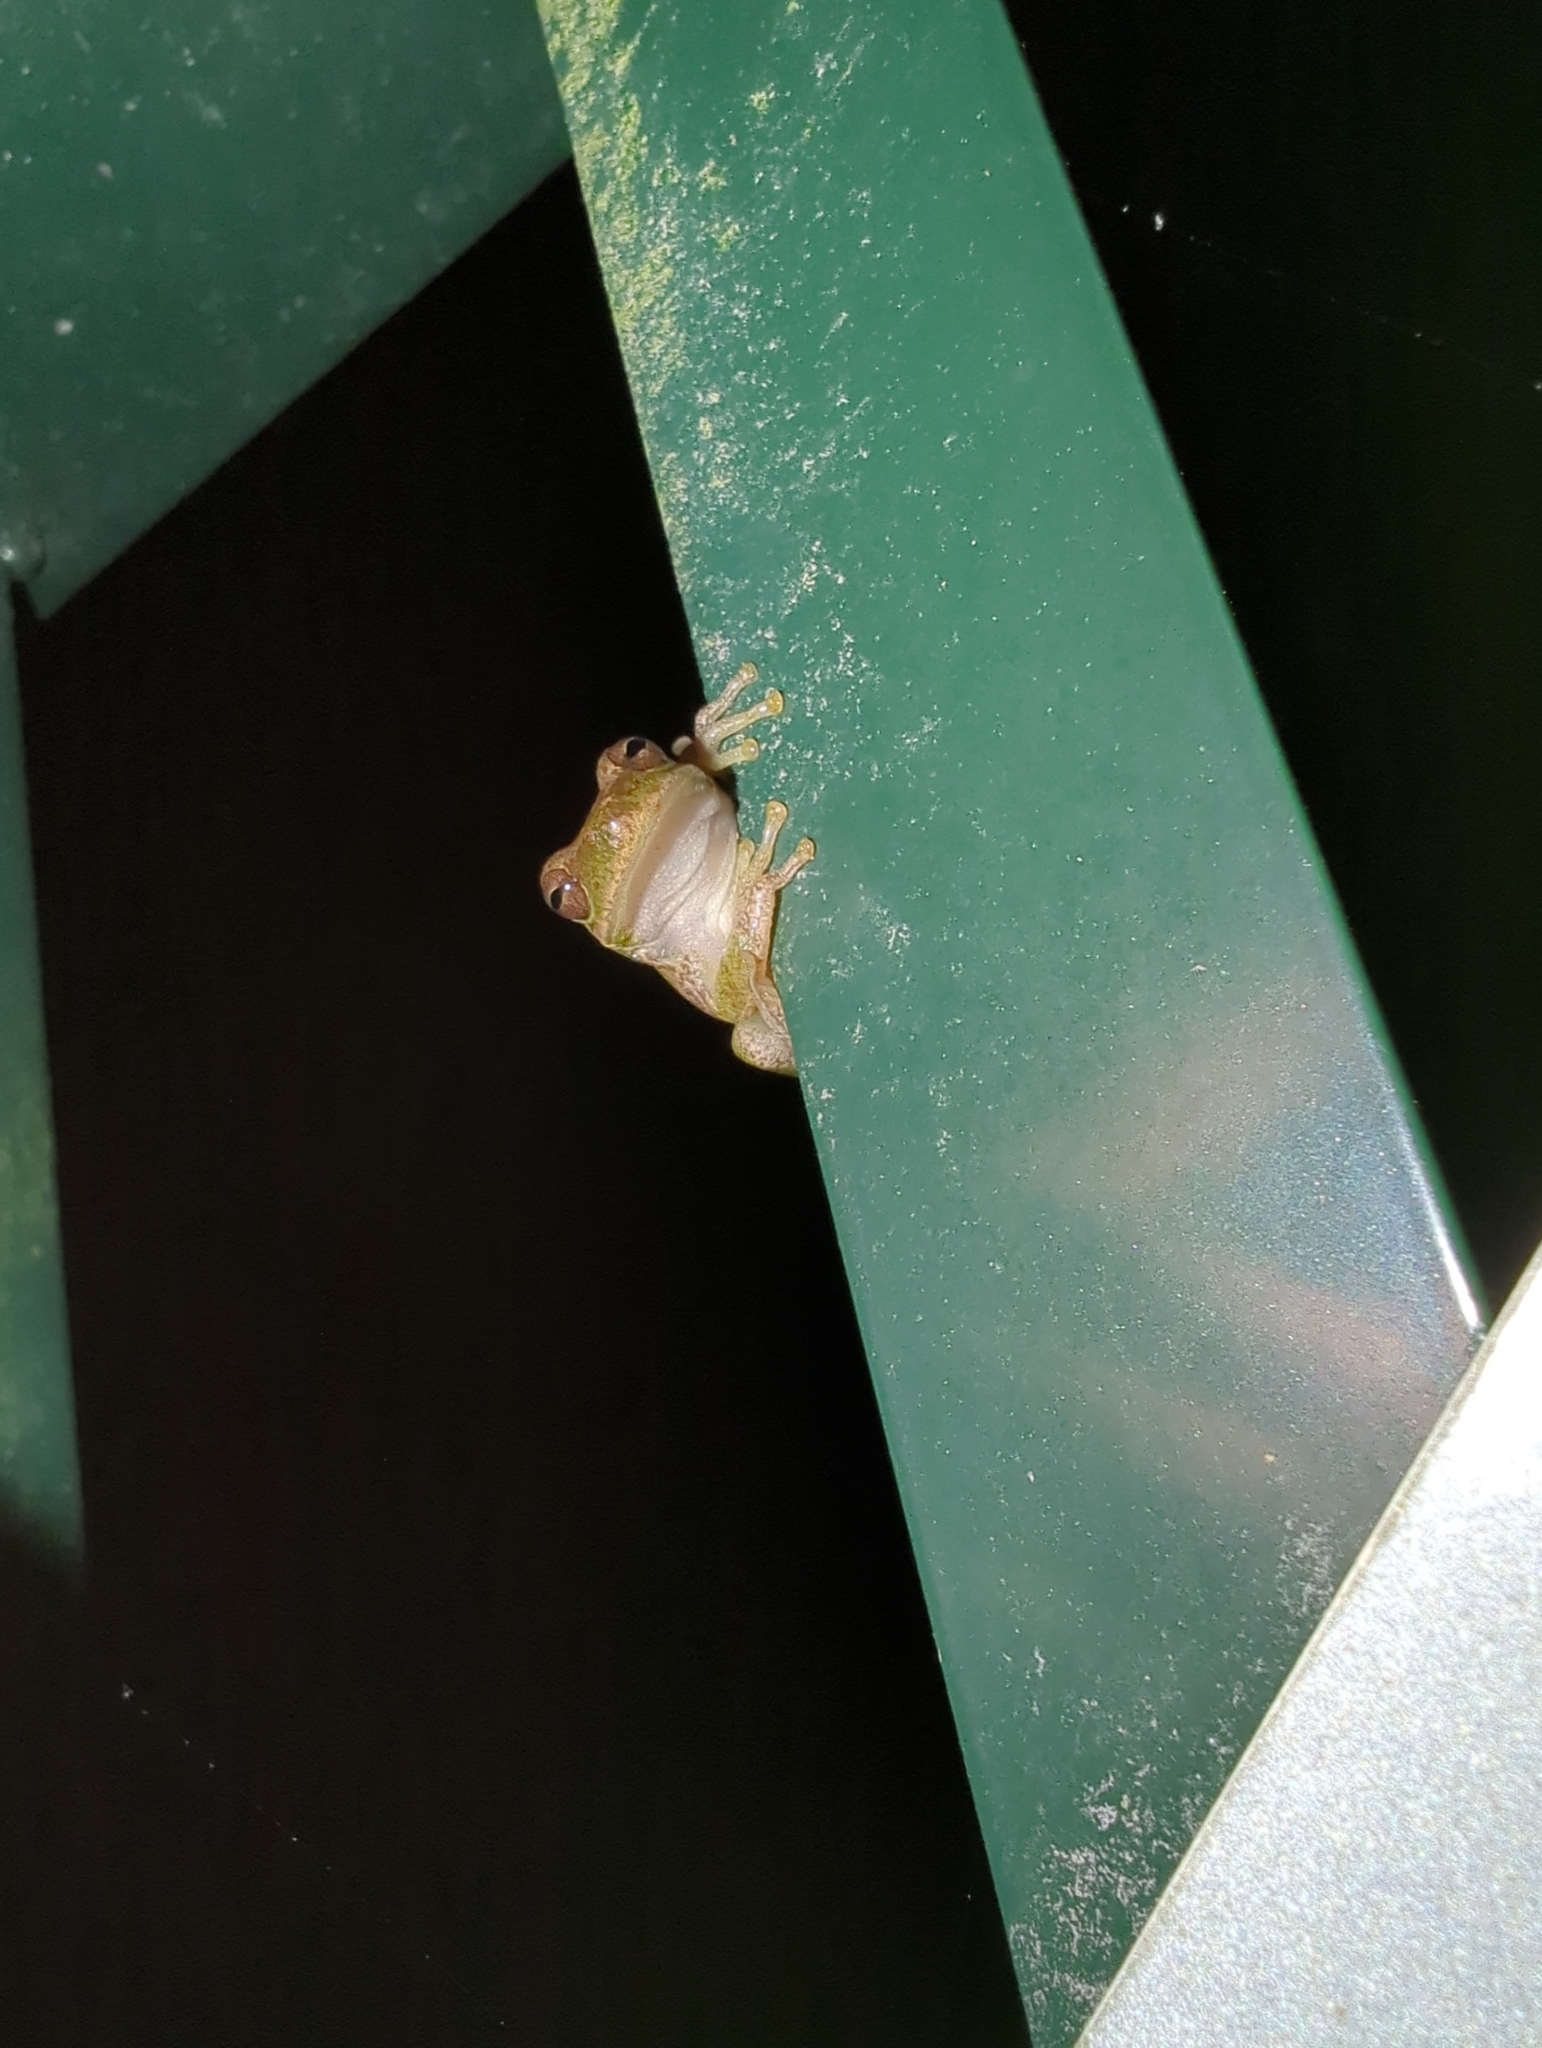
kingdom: Animalia
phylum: Chordata
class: Amphibia
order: Anura
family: Hylidae
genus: Dryophytes
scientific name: Dryophytes squirellus
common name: Squirrel treefrog
